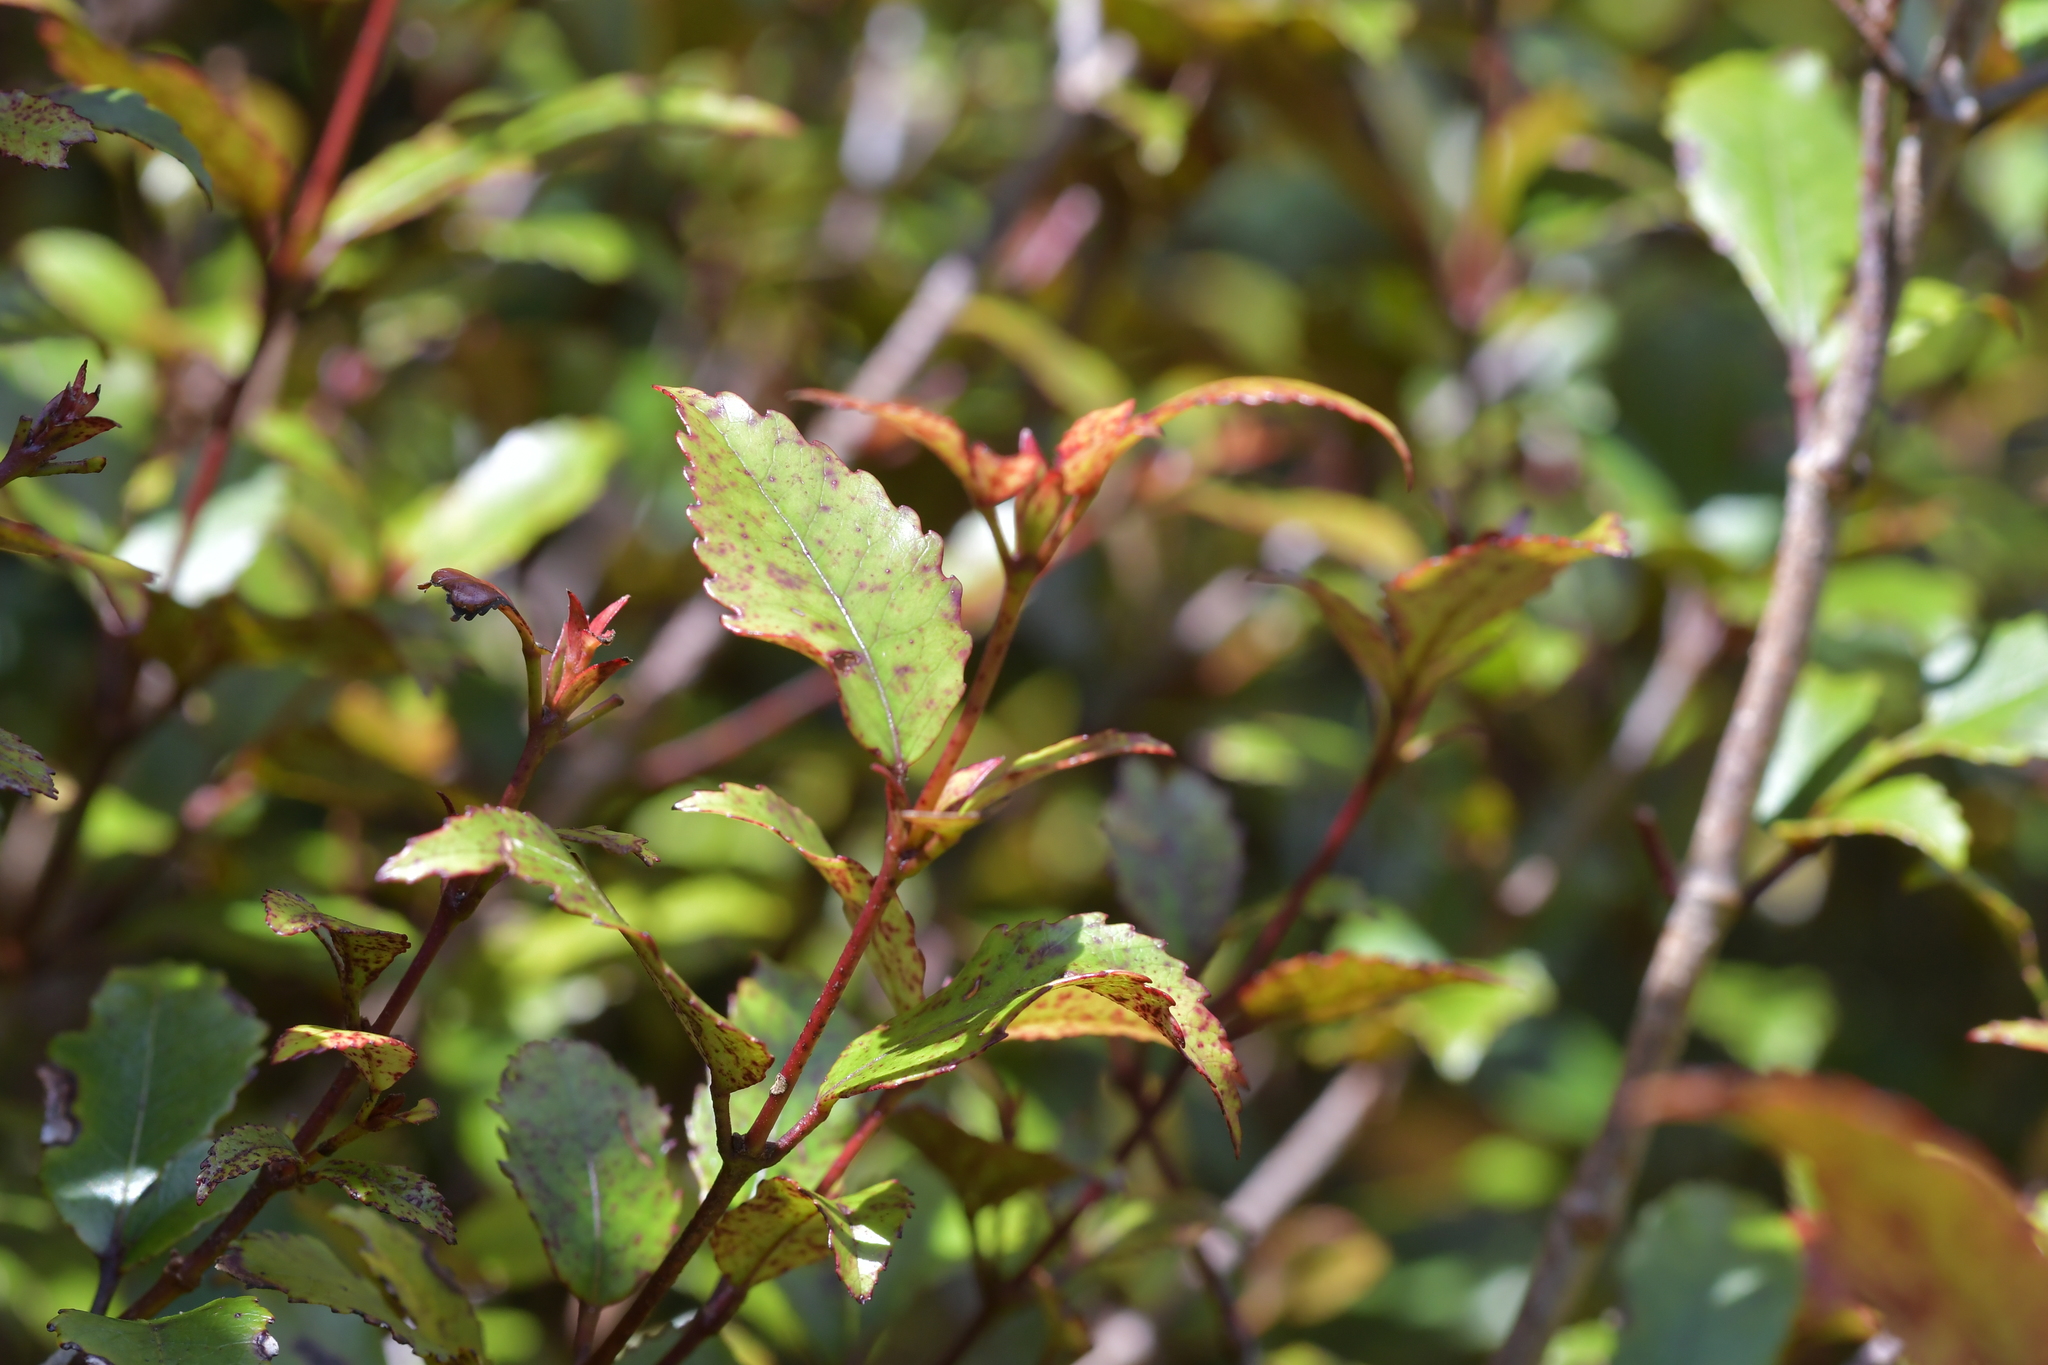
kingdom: Plantae
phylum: Tracheophyta
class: Magnoliopsida
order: Oxalidales
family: Cunoniaceae
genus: Pterophylla
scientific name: Pterophylla racemosa
